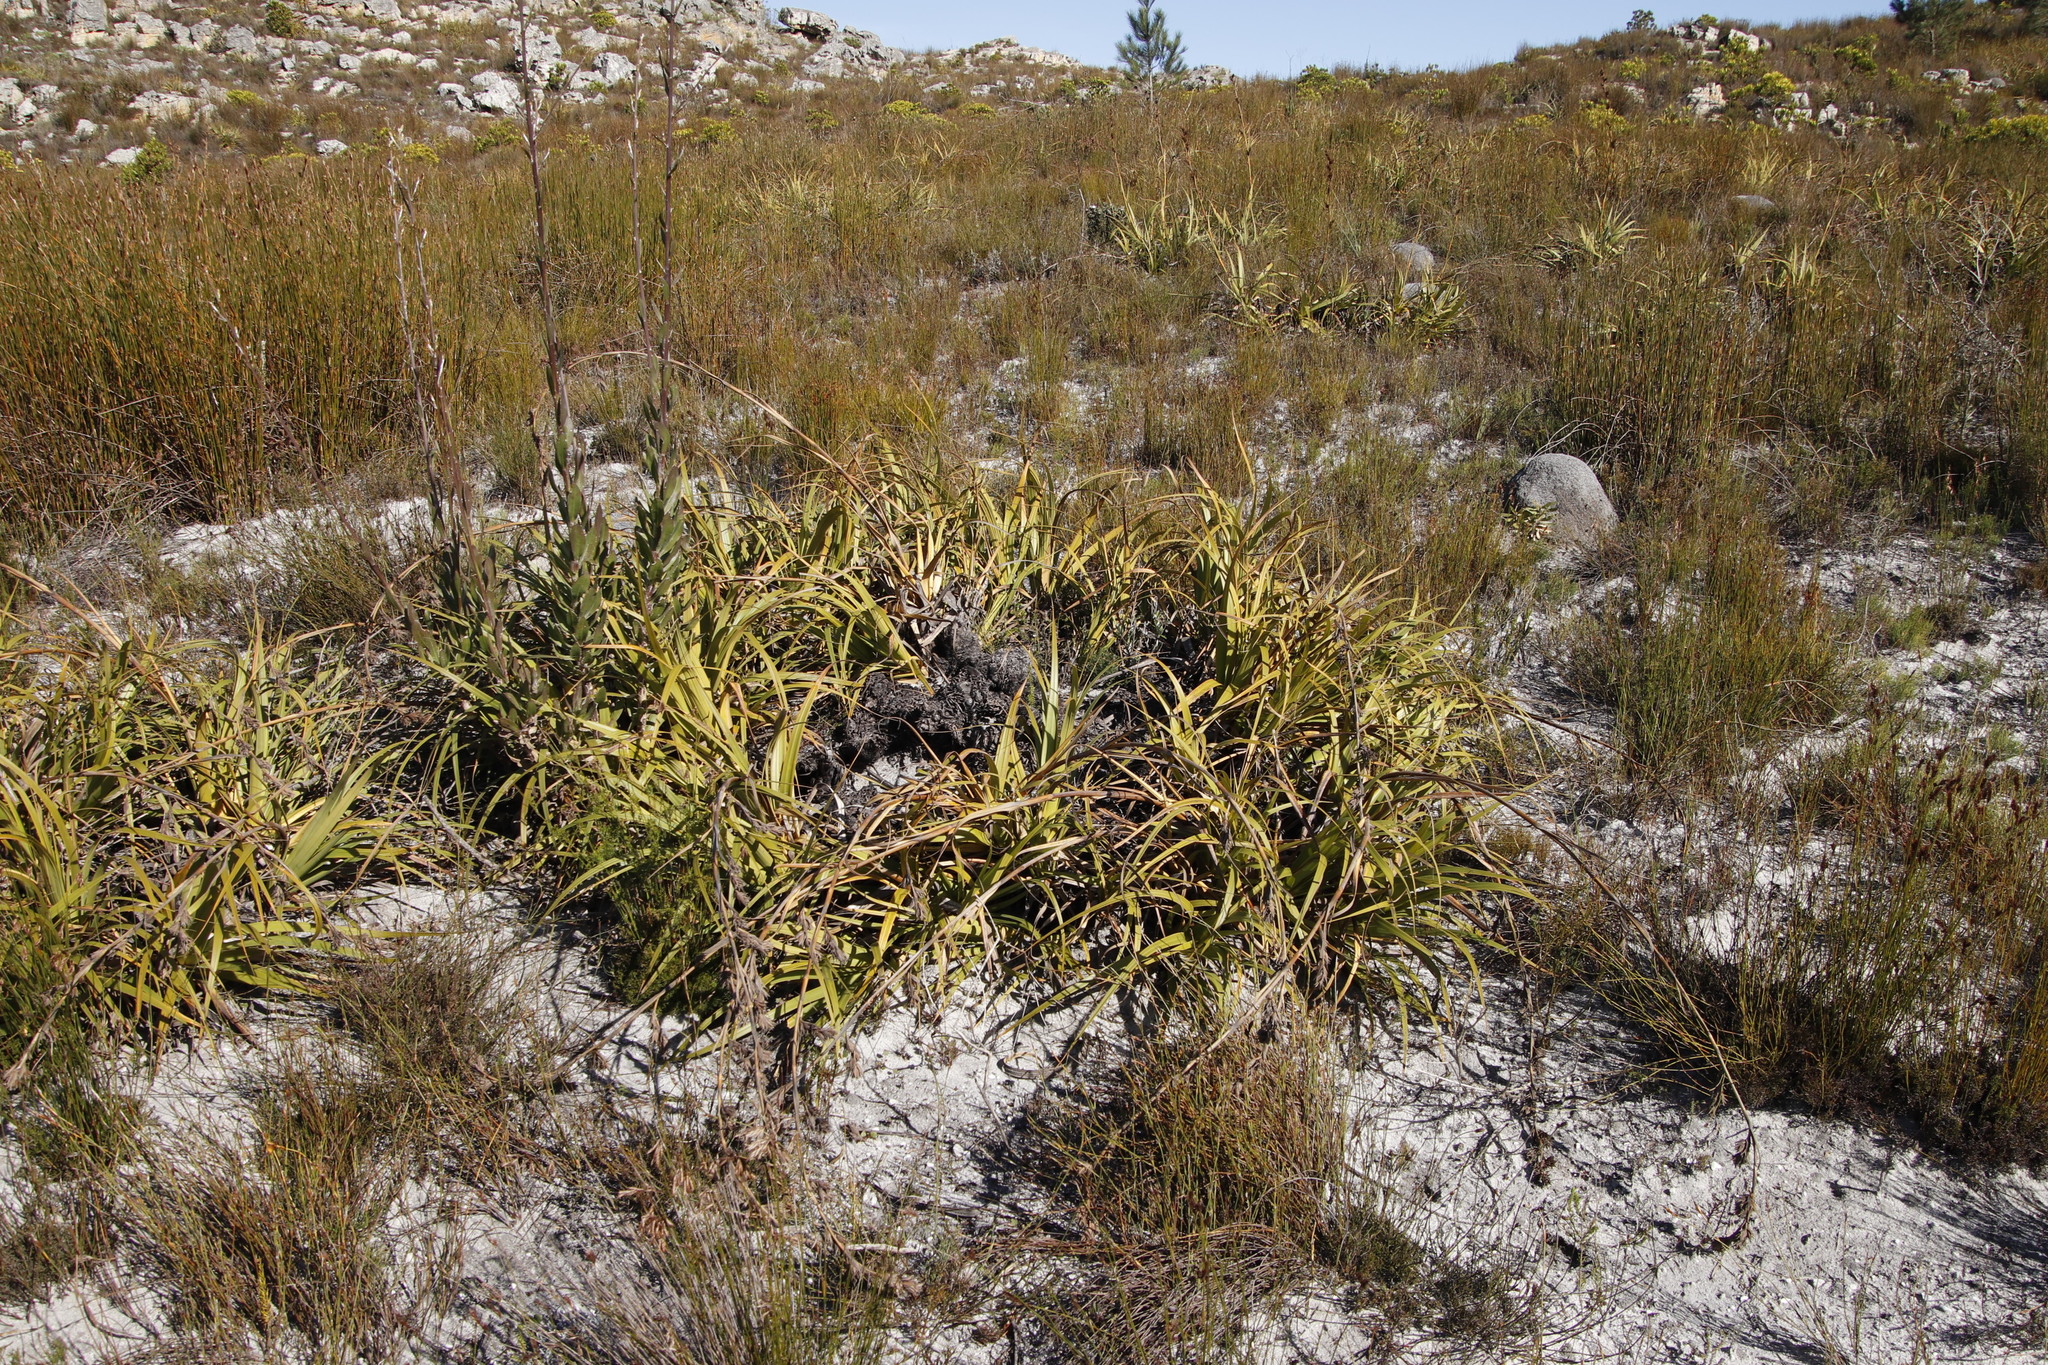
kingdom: Plantae
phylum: Tracheophyta
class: Liliopsida
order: Poales
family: Cyperaceae
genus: Tetraria
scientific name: Tetraria thermalis
